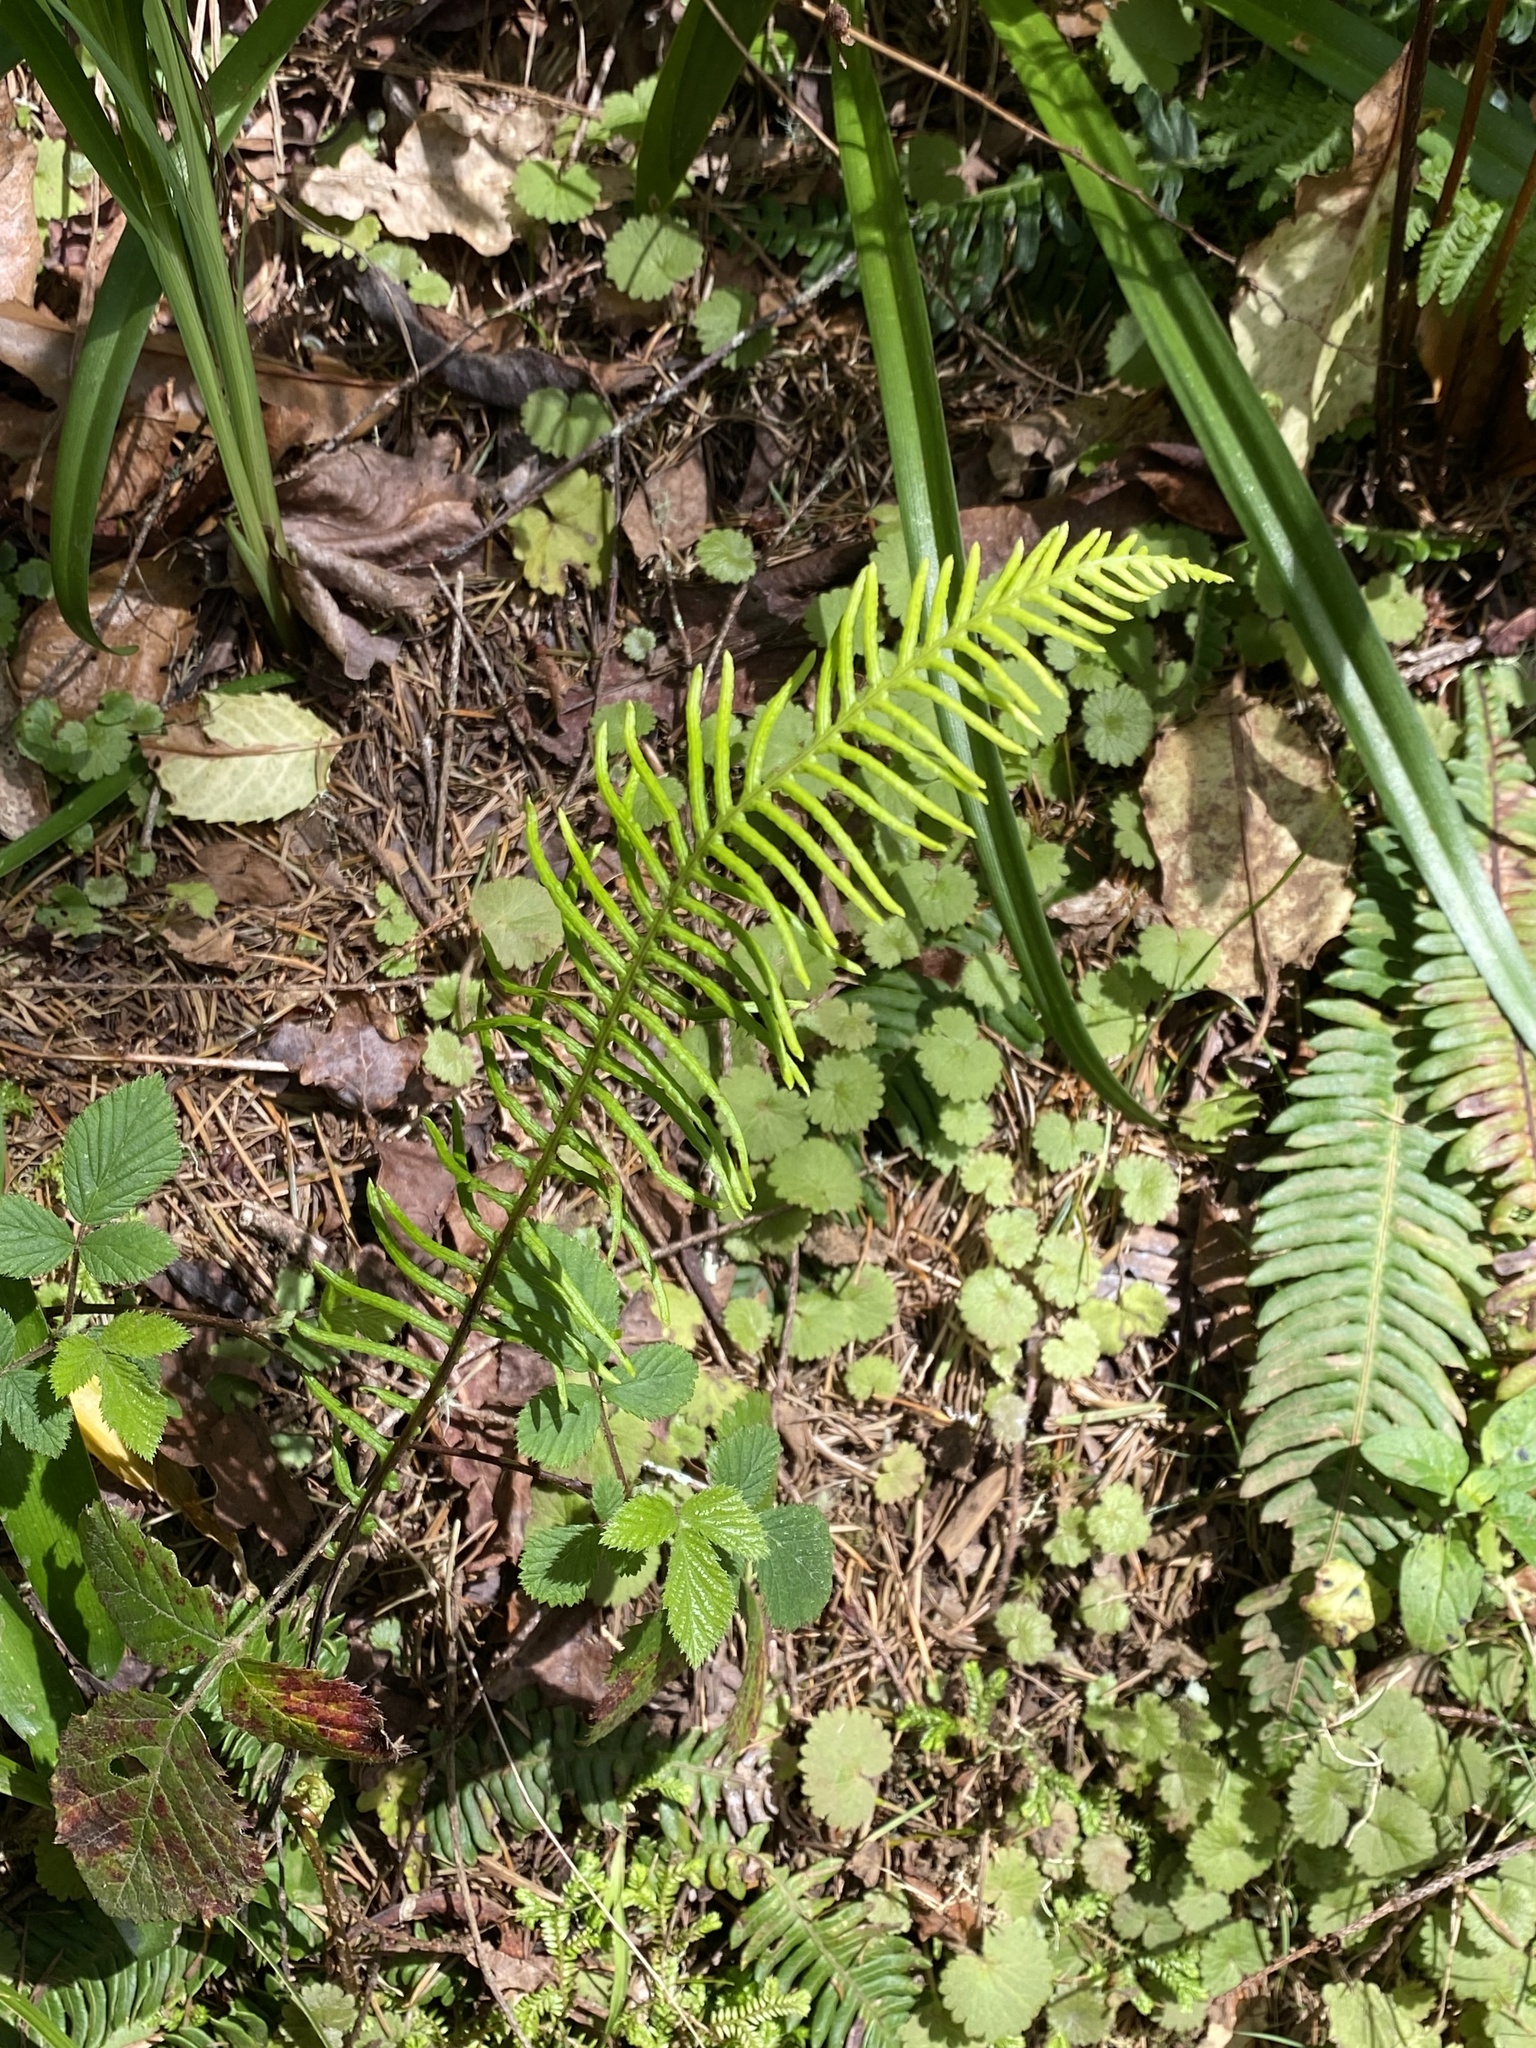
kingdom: Plantae
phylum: Tracheophyta
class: Polypodiopsida
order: Polypodiales
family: Blechnaceae
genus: Struthiopteris
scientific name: Struthiopteris spicant
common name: Deer fern
